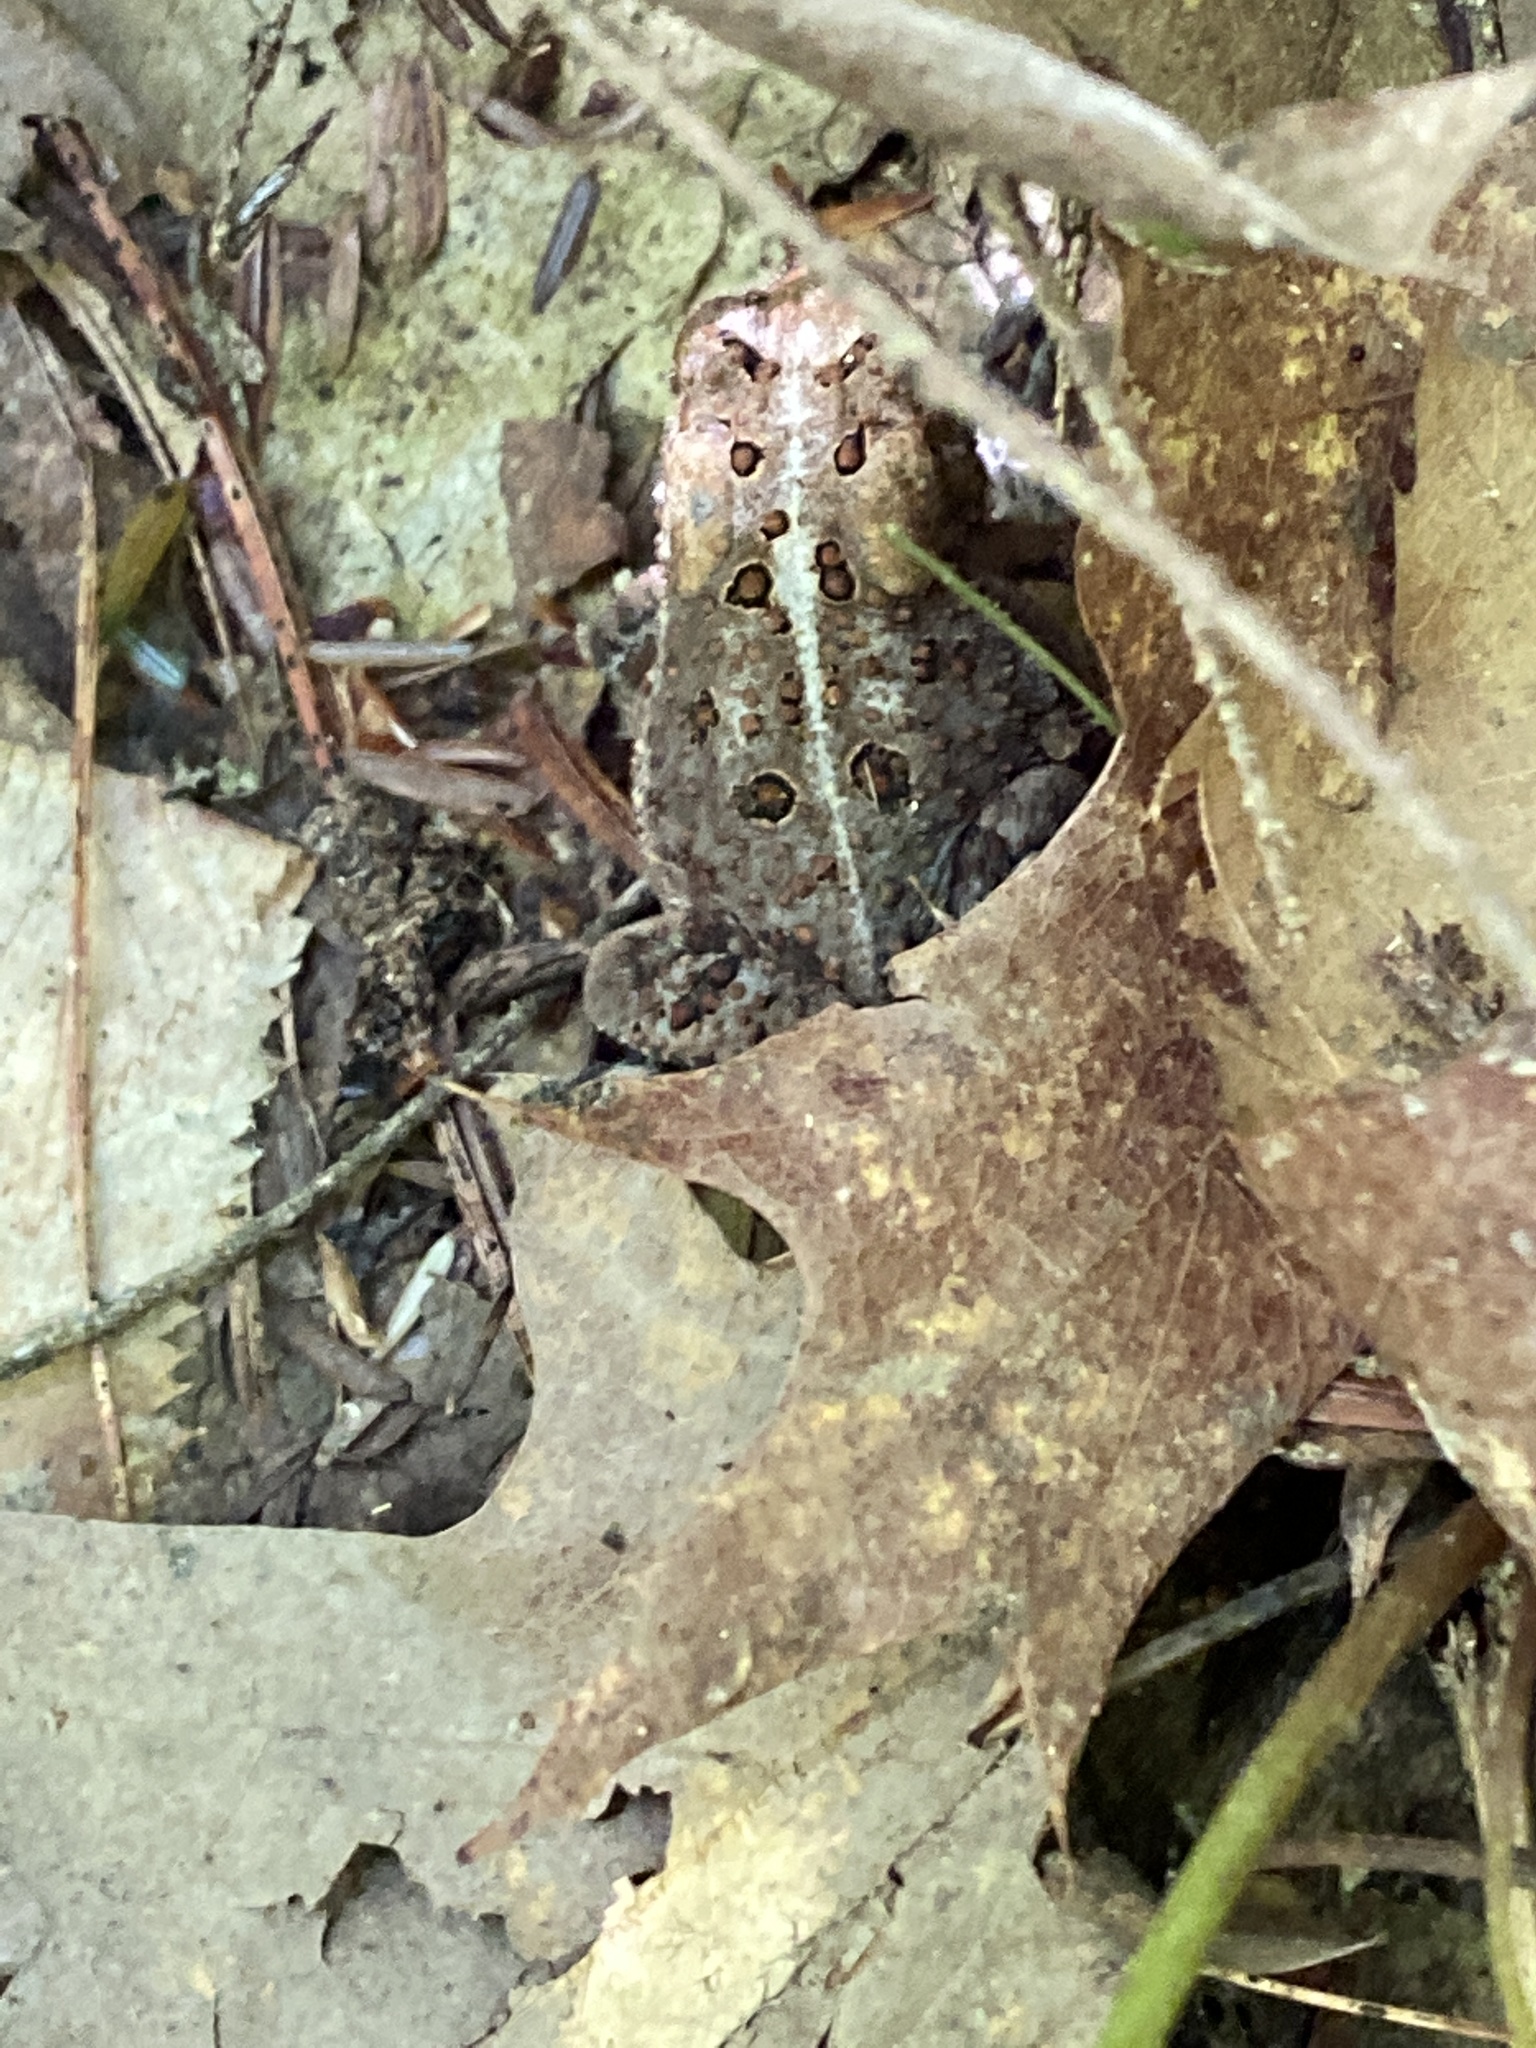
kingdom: Animalia
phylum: Chordata
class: Amphibia
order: Anura
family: Bufonidae
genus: Anaxyrus
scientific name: Anaxyrus americanus
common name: American toad
